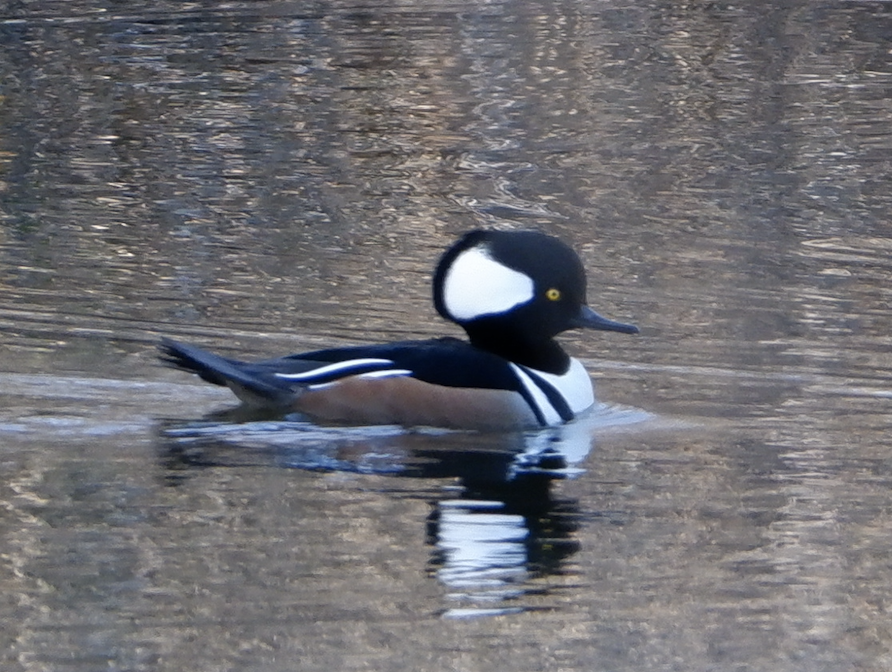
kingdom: Animalia
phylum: Chordata
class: Aves
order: Anseriformes
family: Anatidae
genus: Lophodytes
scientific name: Lophodytes cucullatus
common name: Hooded merganser
